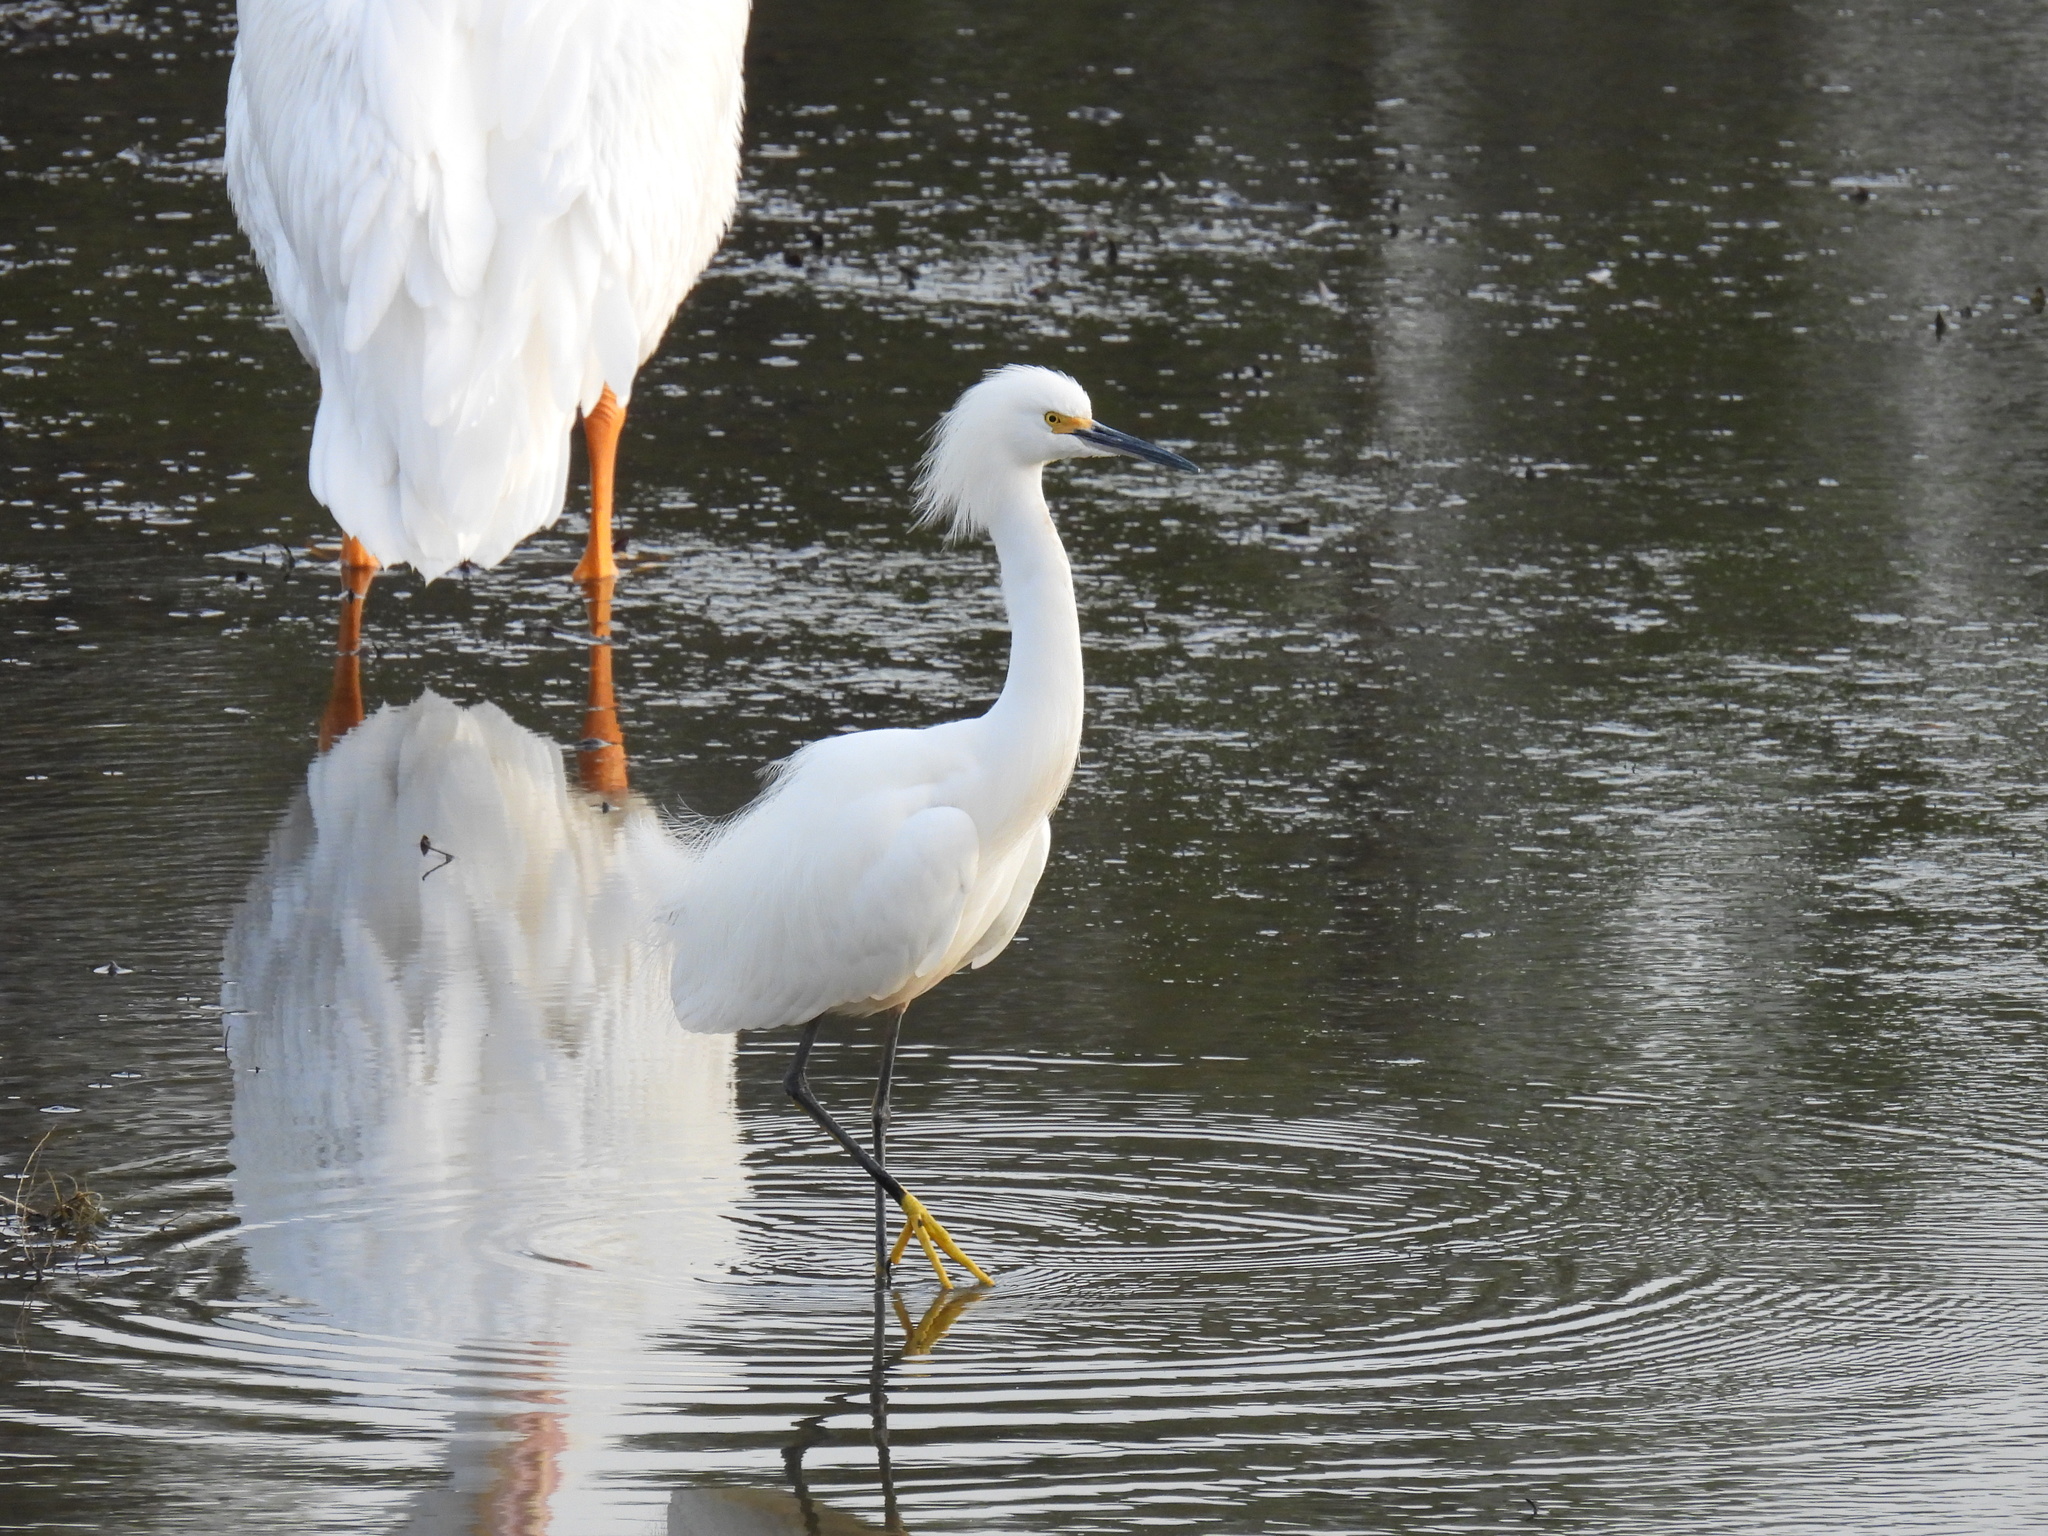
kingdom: Animalia
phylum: Chordata
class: Aves
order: Pelecaniformes
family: Ardeidae
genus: Egretta
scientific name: Egretta thula
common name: Snowy egret
